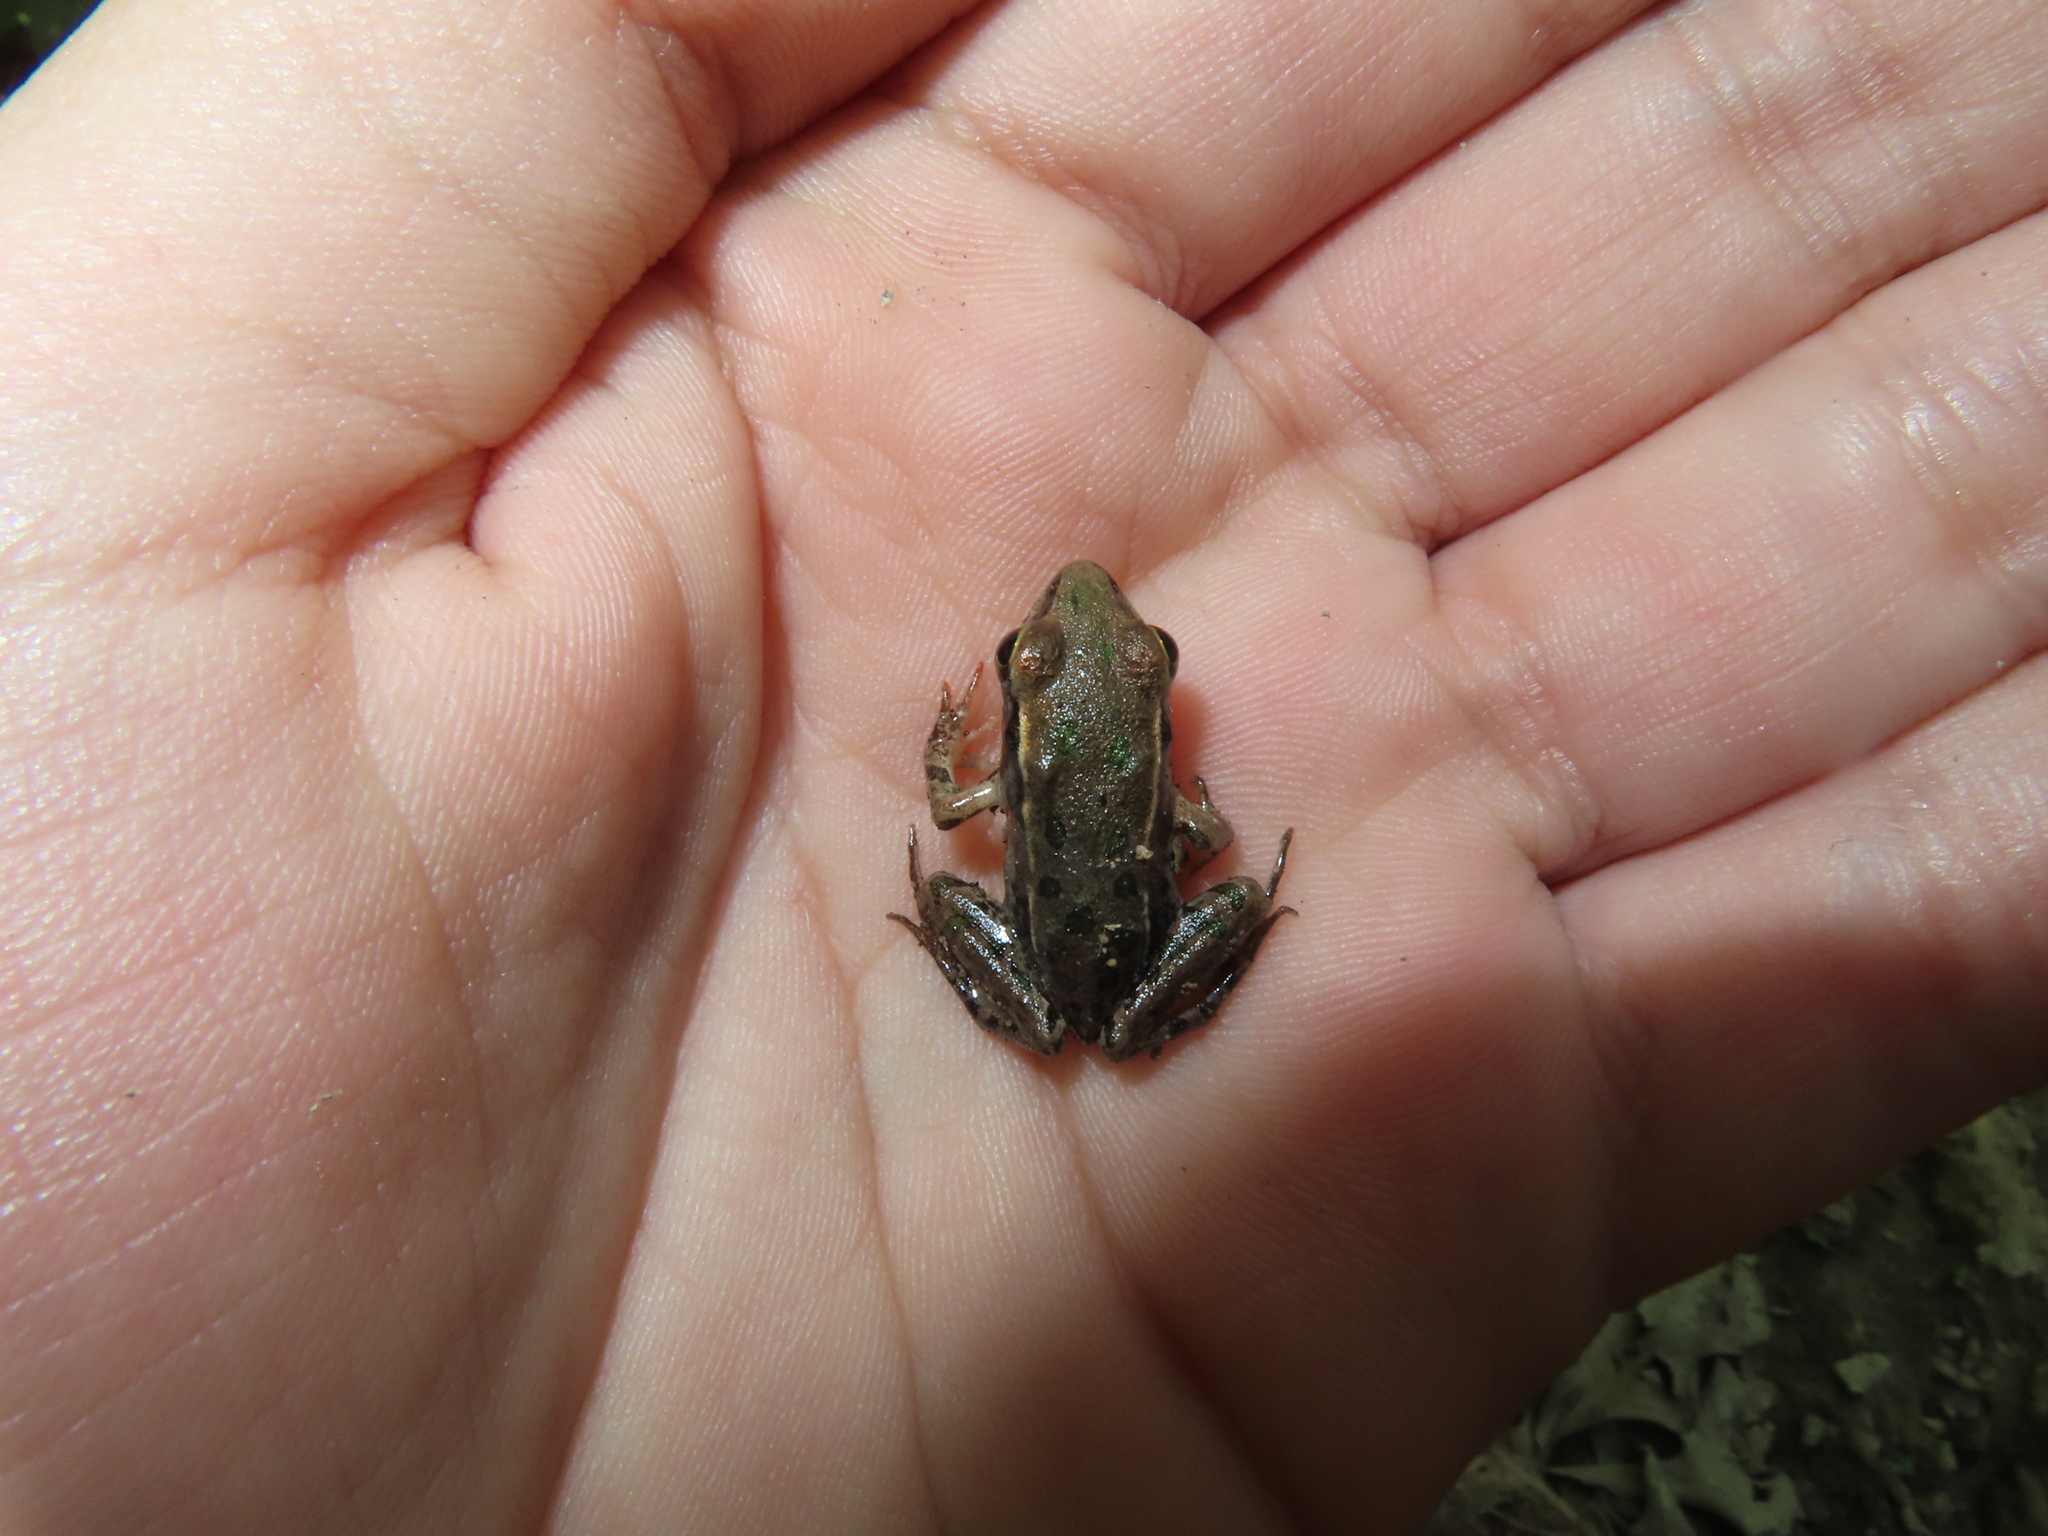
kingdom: Animalia
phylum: Chordata
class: Amphibia
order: Anura
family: Ranidae
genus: Lithobates
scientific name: Lithobates sphenocephalus
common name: Southern leopard frog
